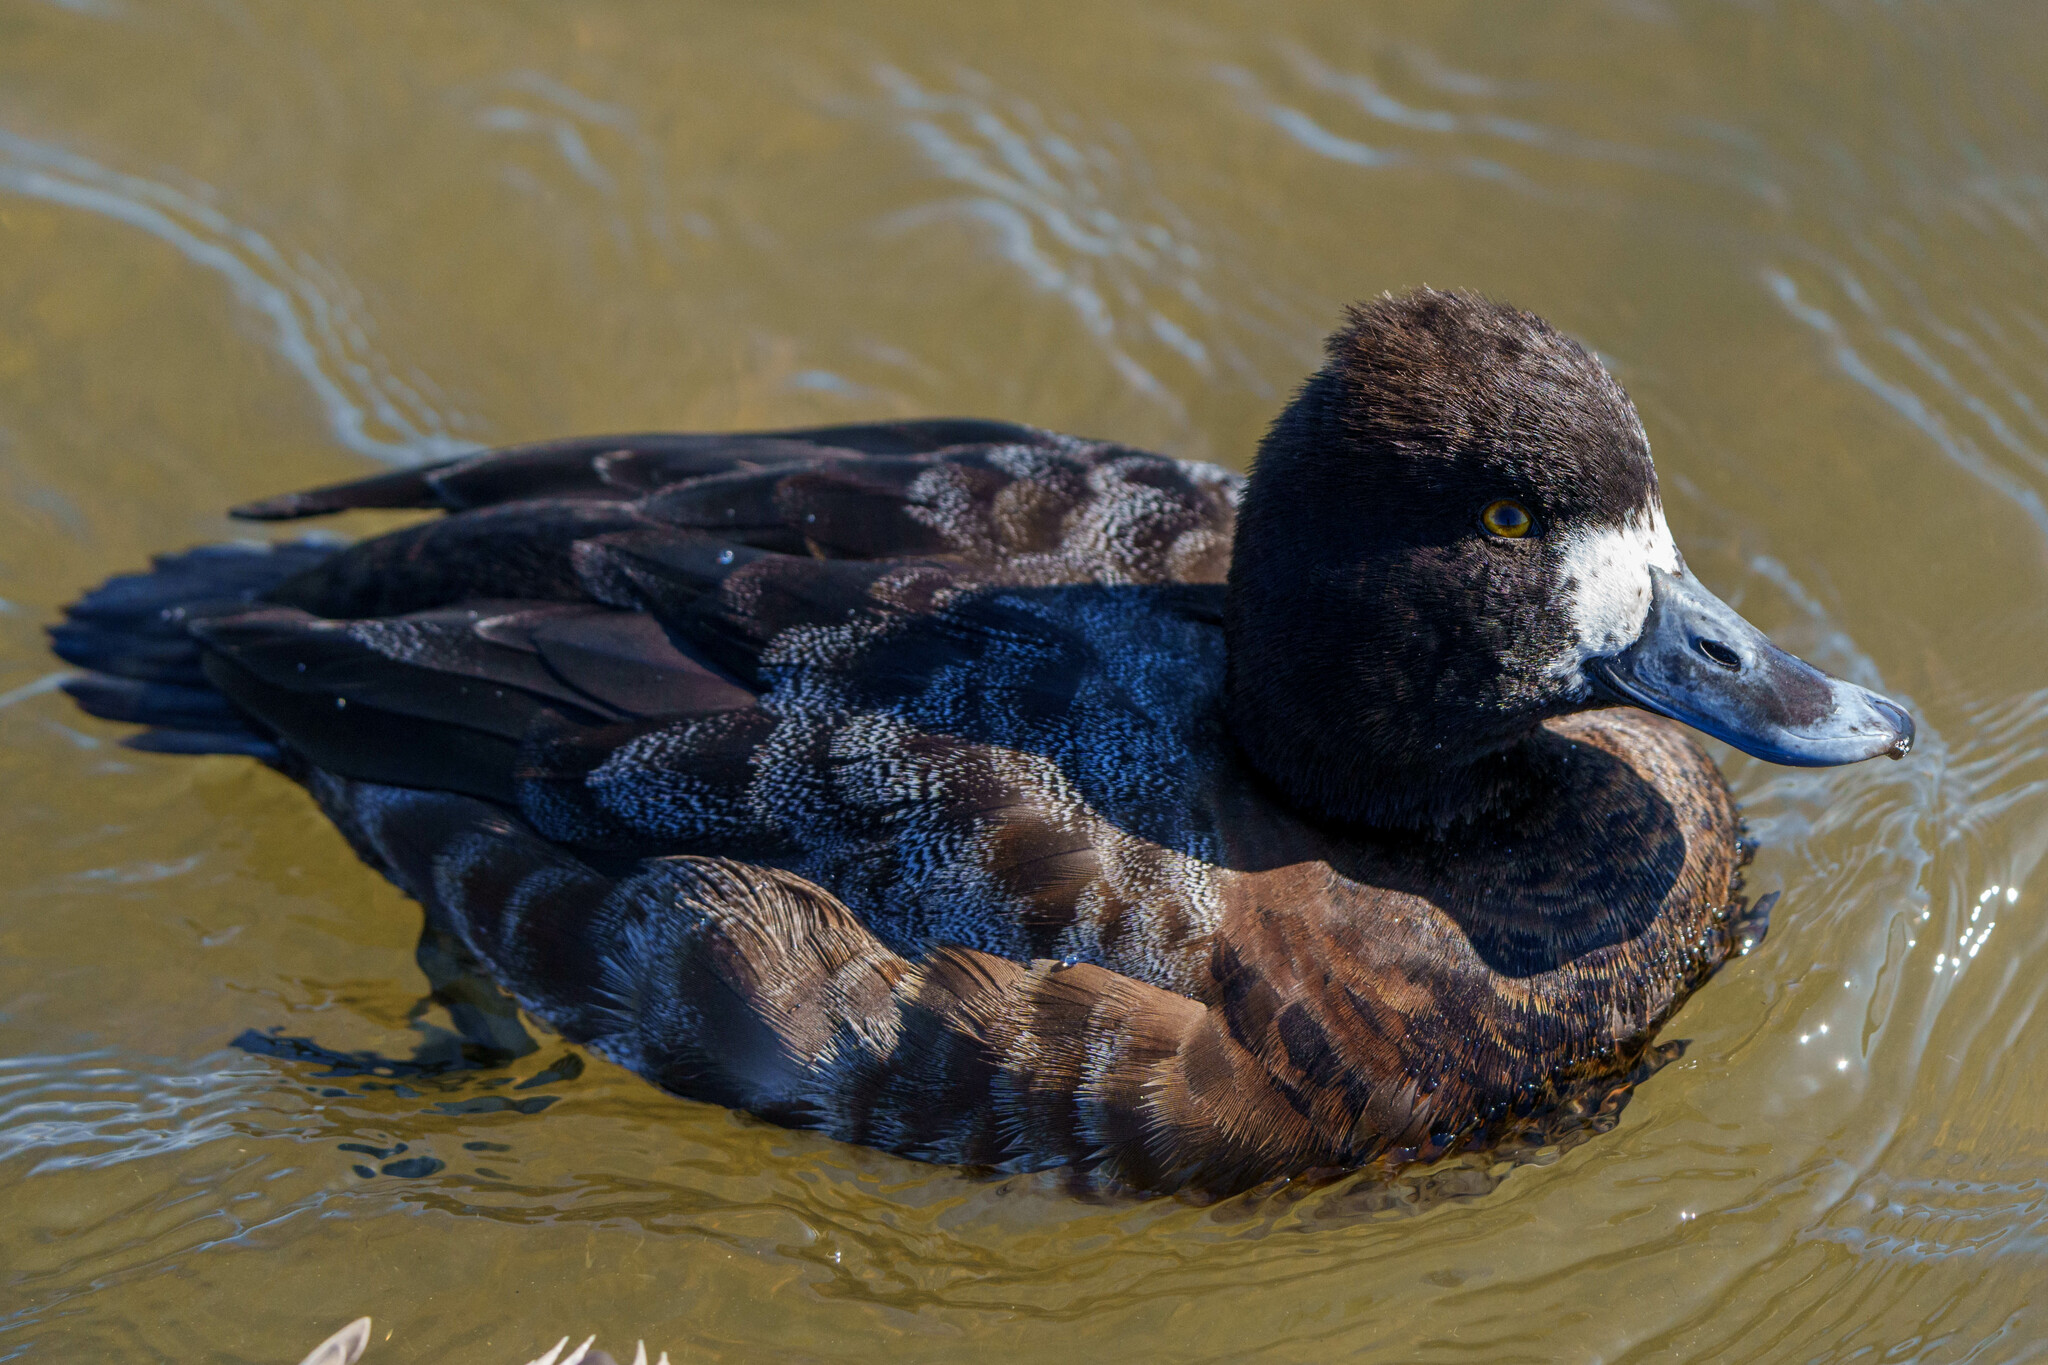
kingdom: Animalia
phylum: Chordata
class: Aves
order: Anseriformes
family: Anatidae
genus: Aythya
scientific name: Aythya affinis
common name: Lesser scaup
